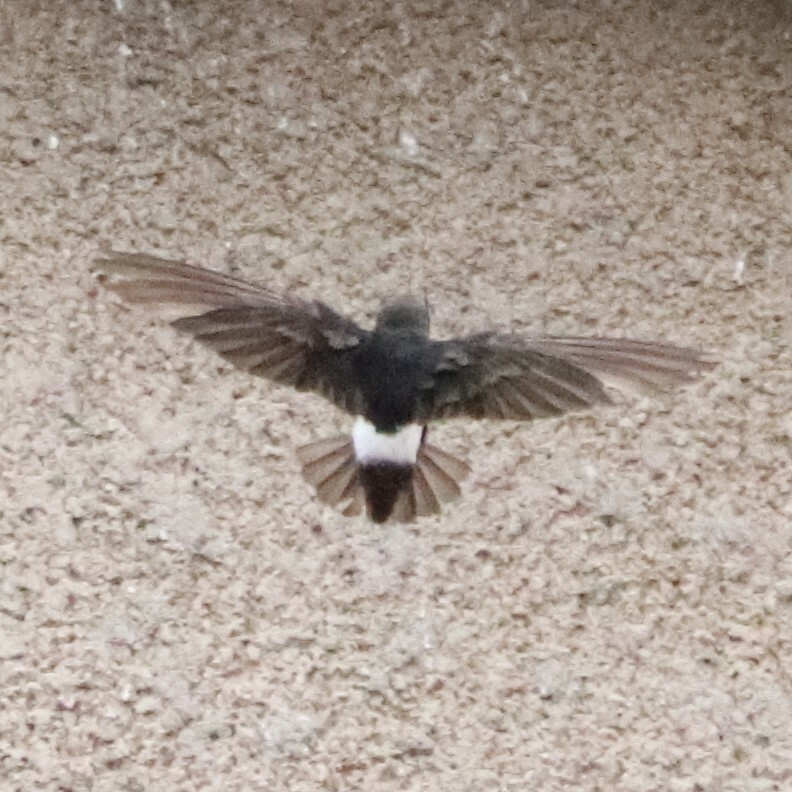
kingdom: Animalia
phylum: Chordata
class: Aves
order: Apodiformes
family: Apodidae
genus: Apus
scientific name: Apus affinis
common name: Little swift
